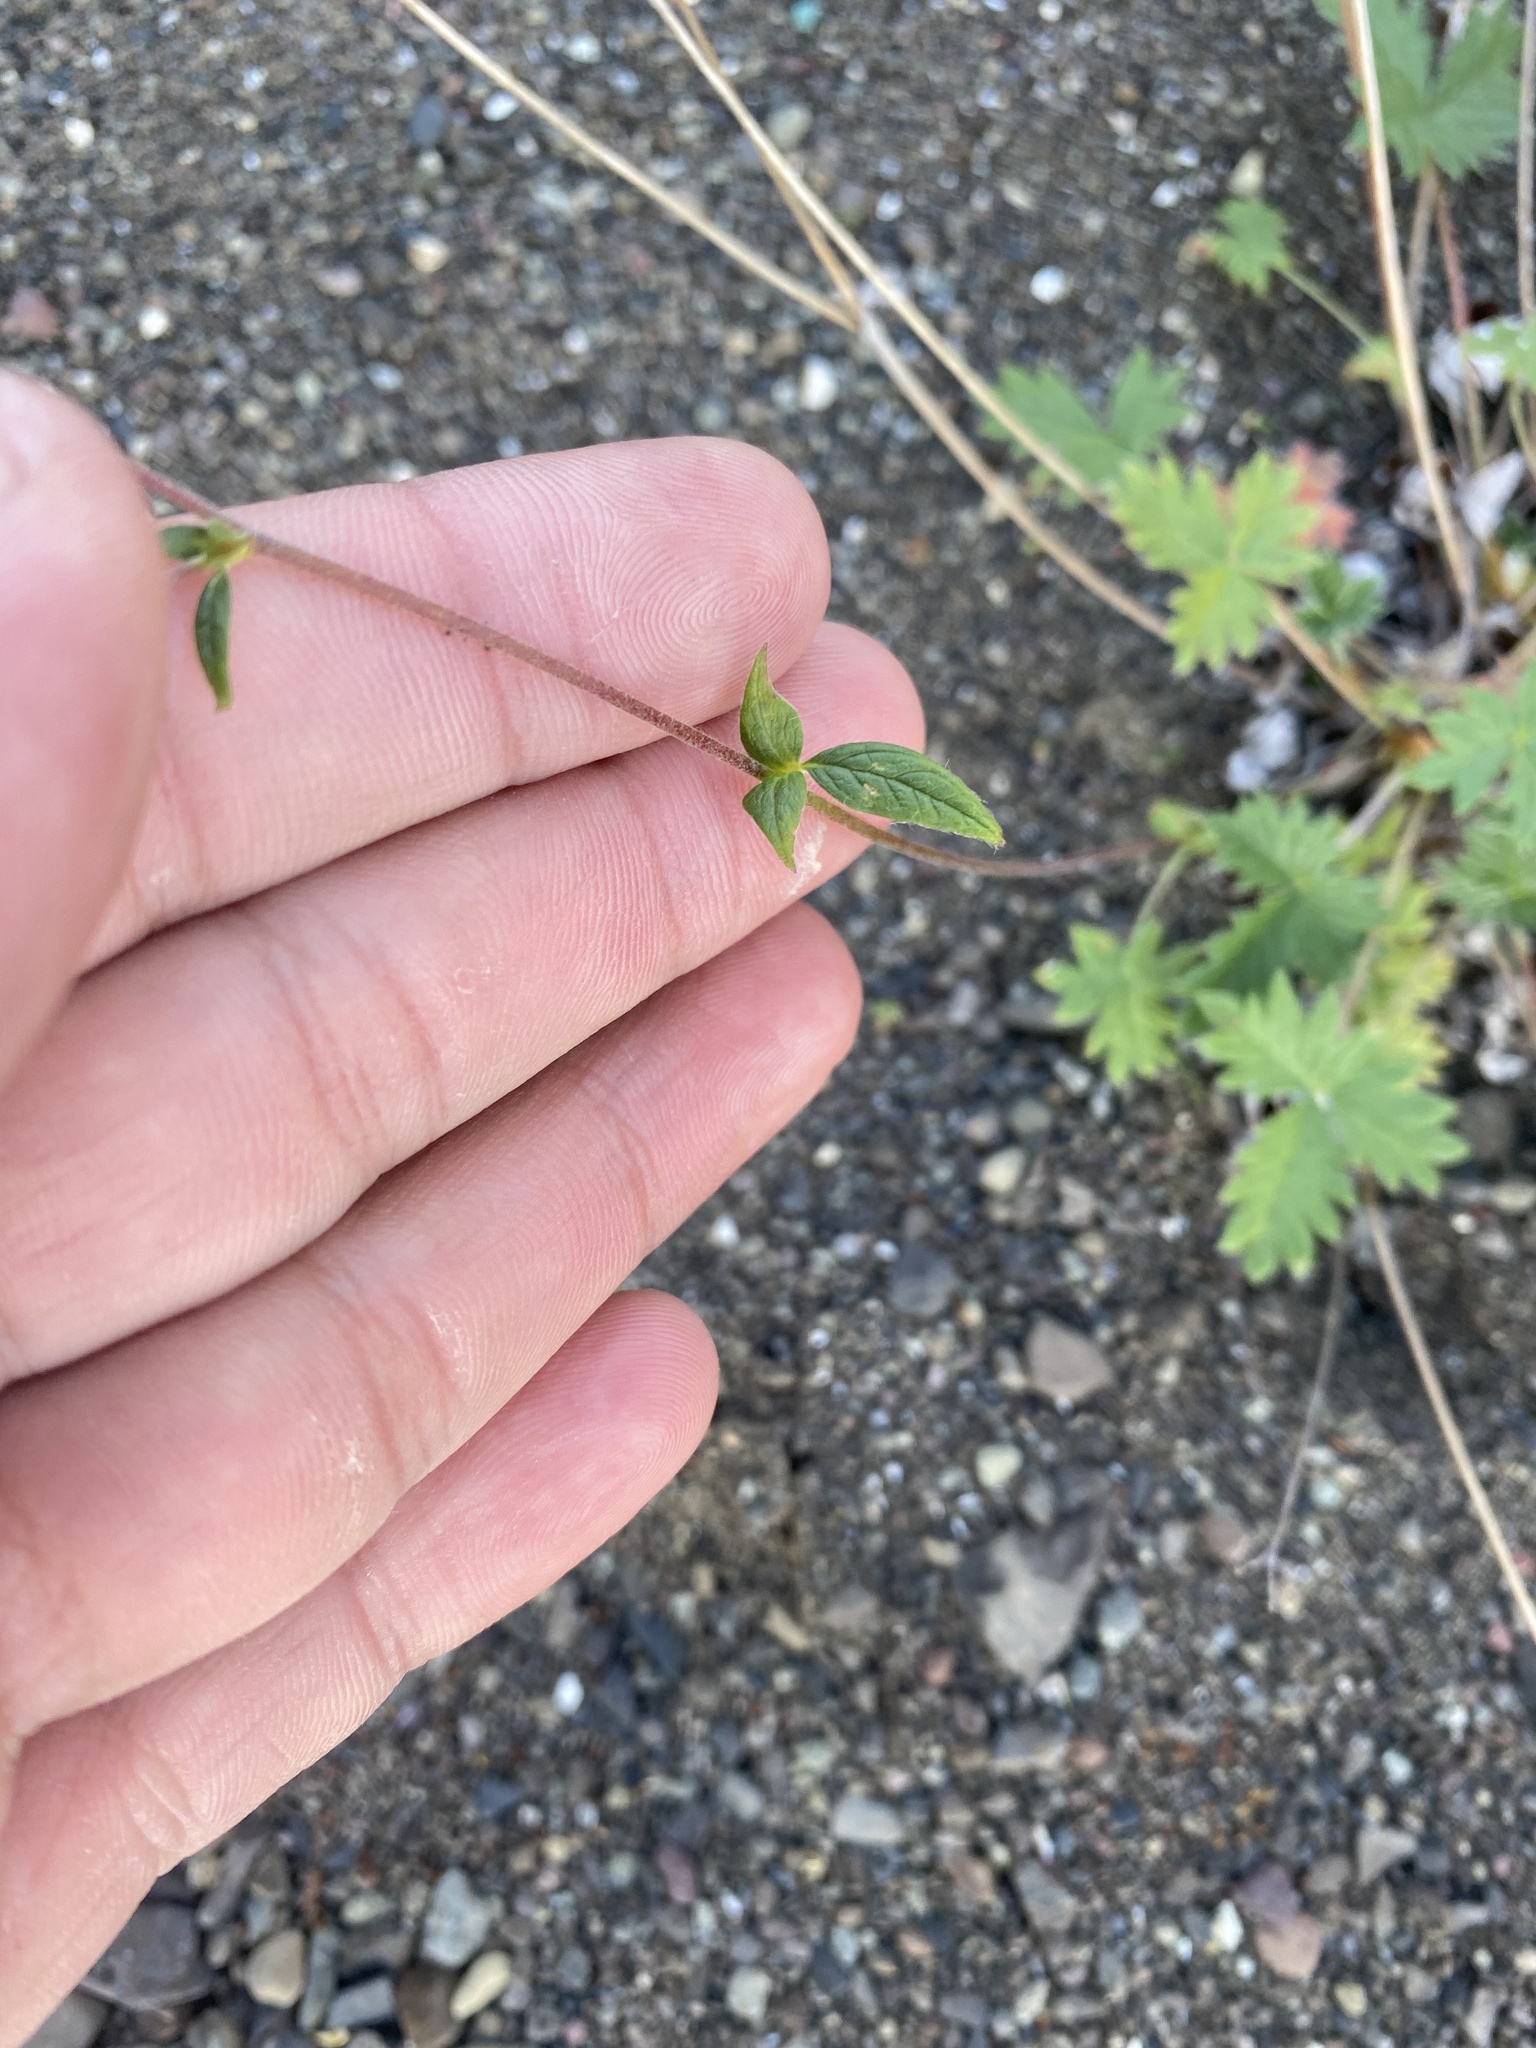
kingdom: Plantae
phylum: Tracheophyta
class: Magnoliopsida
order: Rosales
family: Rosaceae
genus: Potentilla
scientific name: Potentilla prostrata
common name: Prostrate cinquefoil
